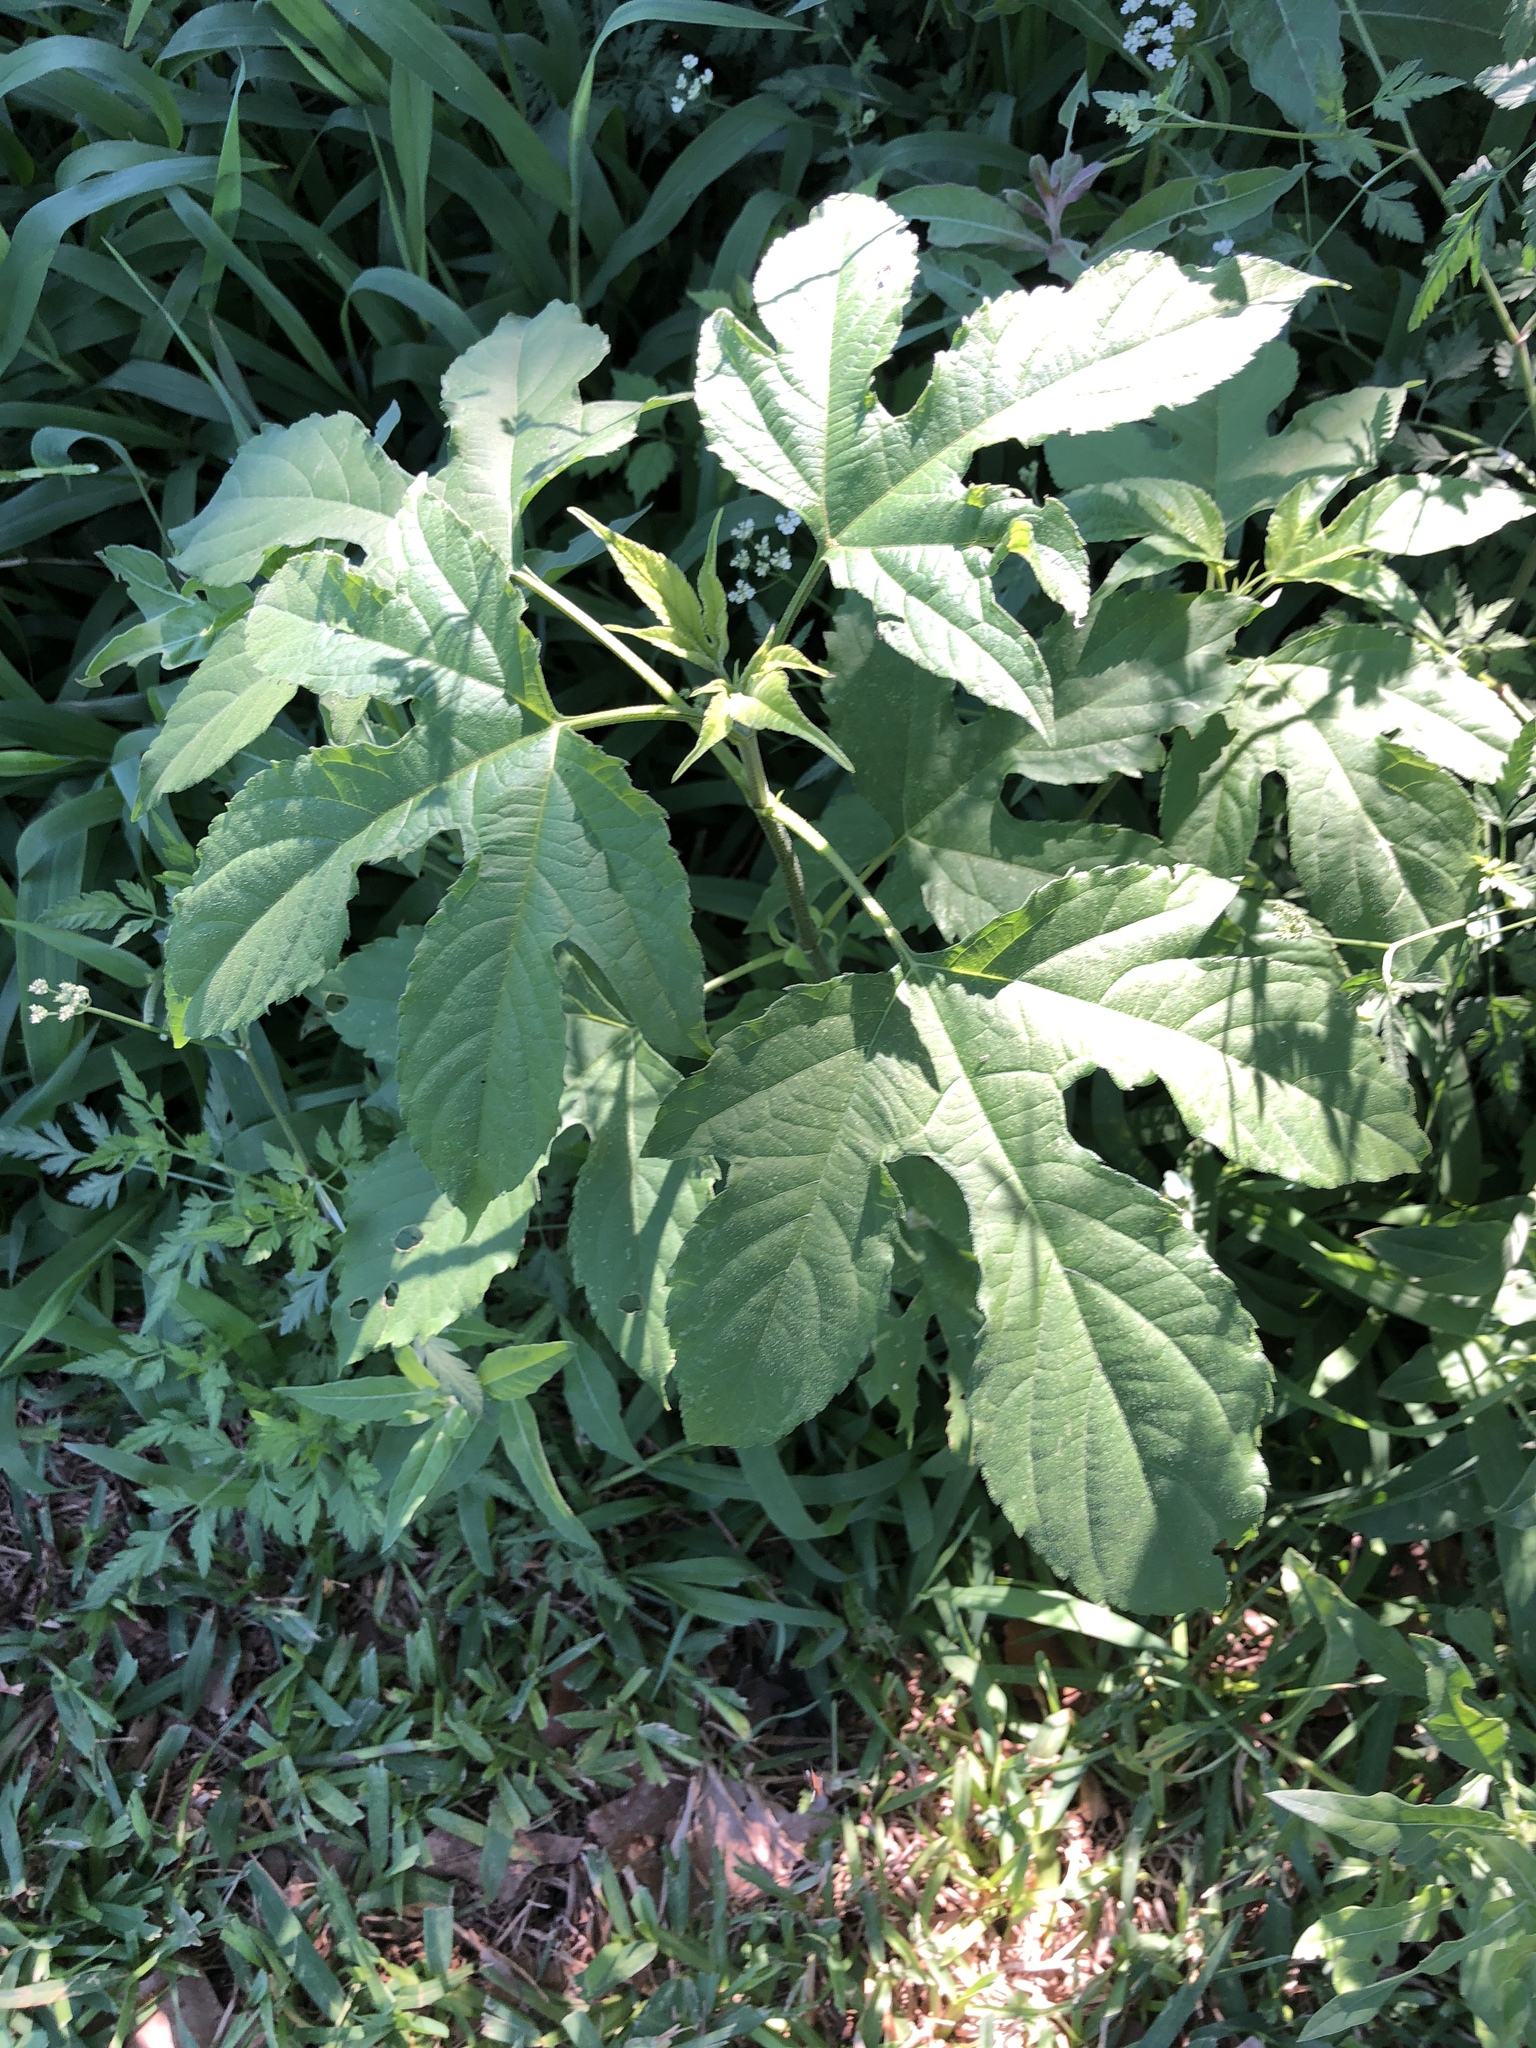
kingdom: Plantae
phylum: Tracheophyta
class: Magnoliopsida
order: Asterales
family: Asteraceae
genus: Ambrosia
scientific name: Ambrosia trifida
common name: Giant ragweed
